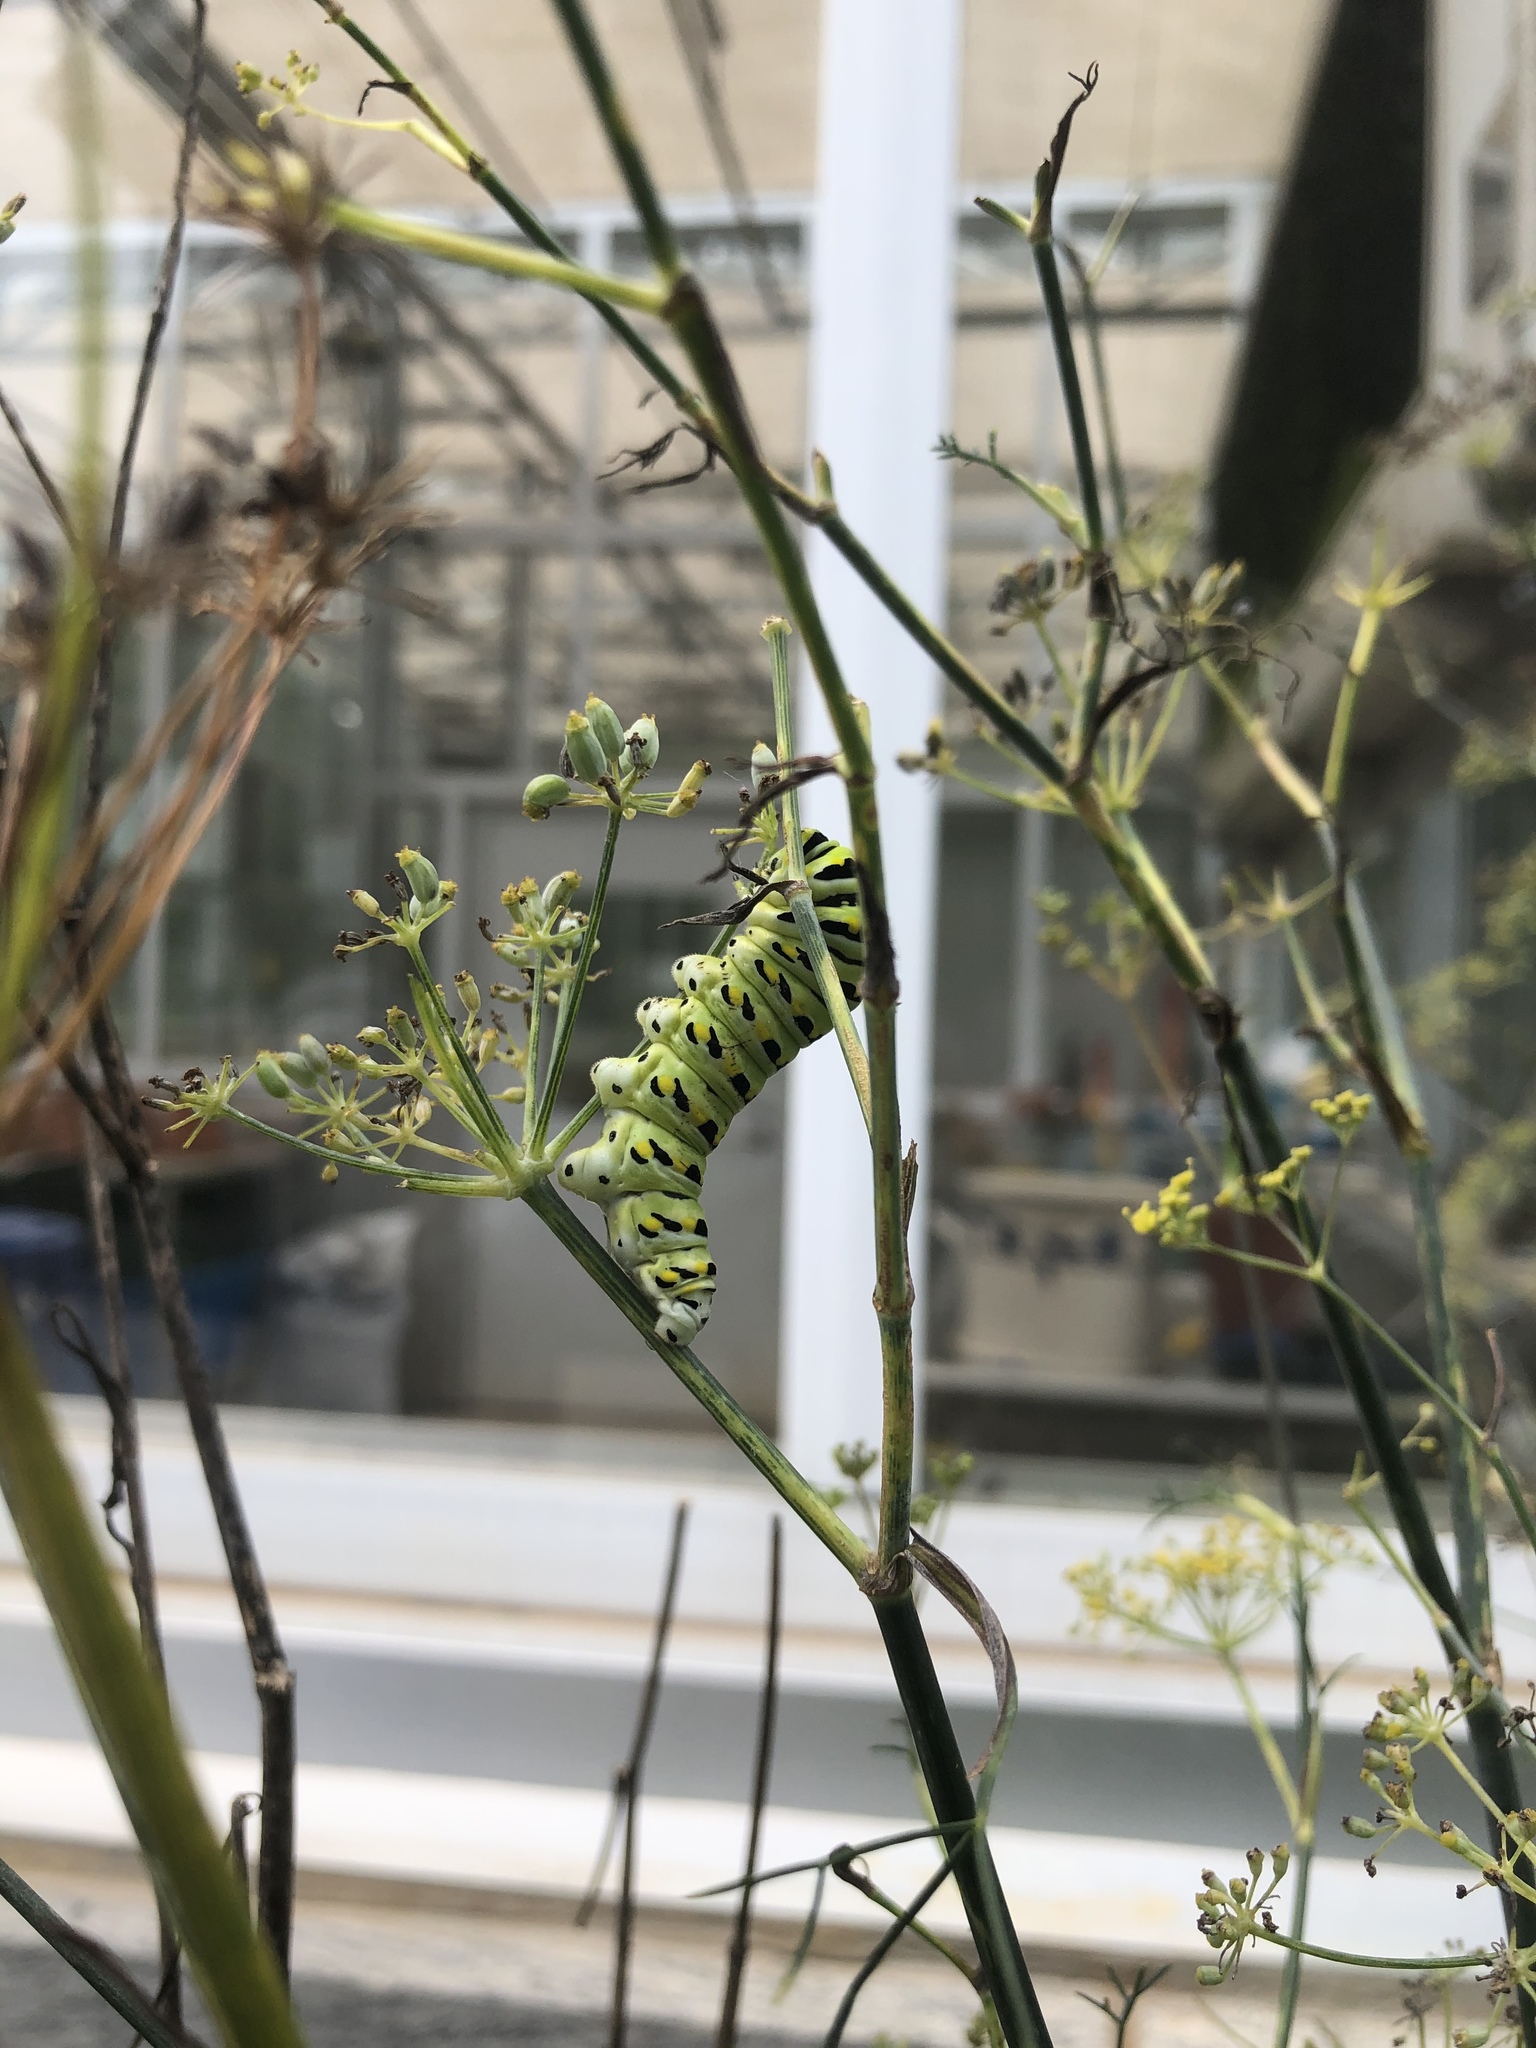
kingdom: Animalia
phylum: Arthropoda
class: Insecta
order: Lepidoptera
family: Papilionidae
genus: Papilio
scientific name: Papilio polyxenes
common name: Black swallowtail
